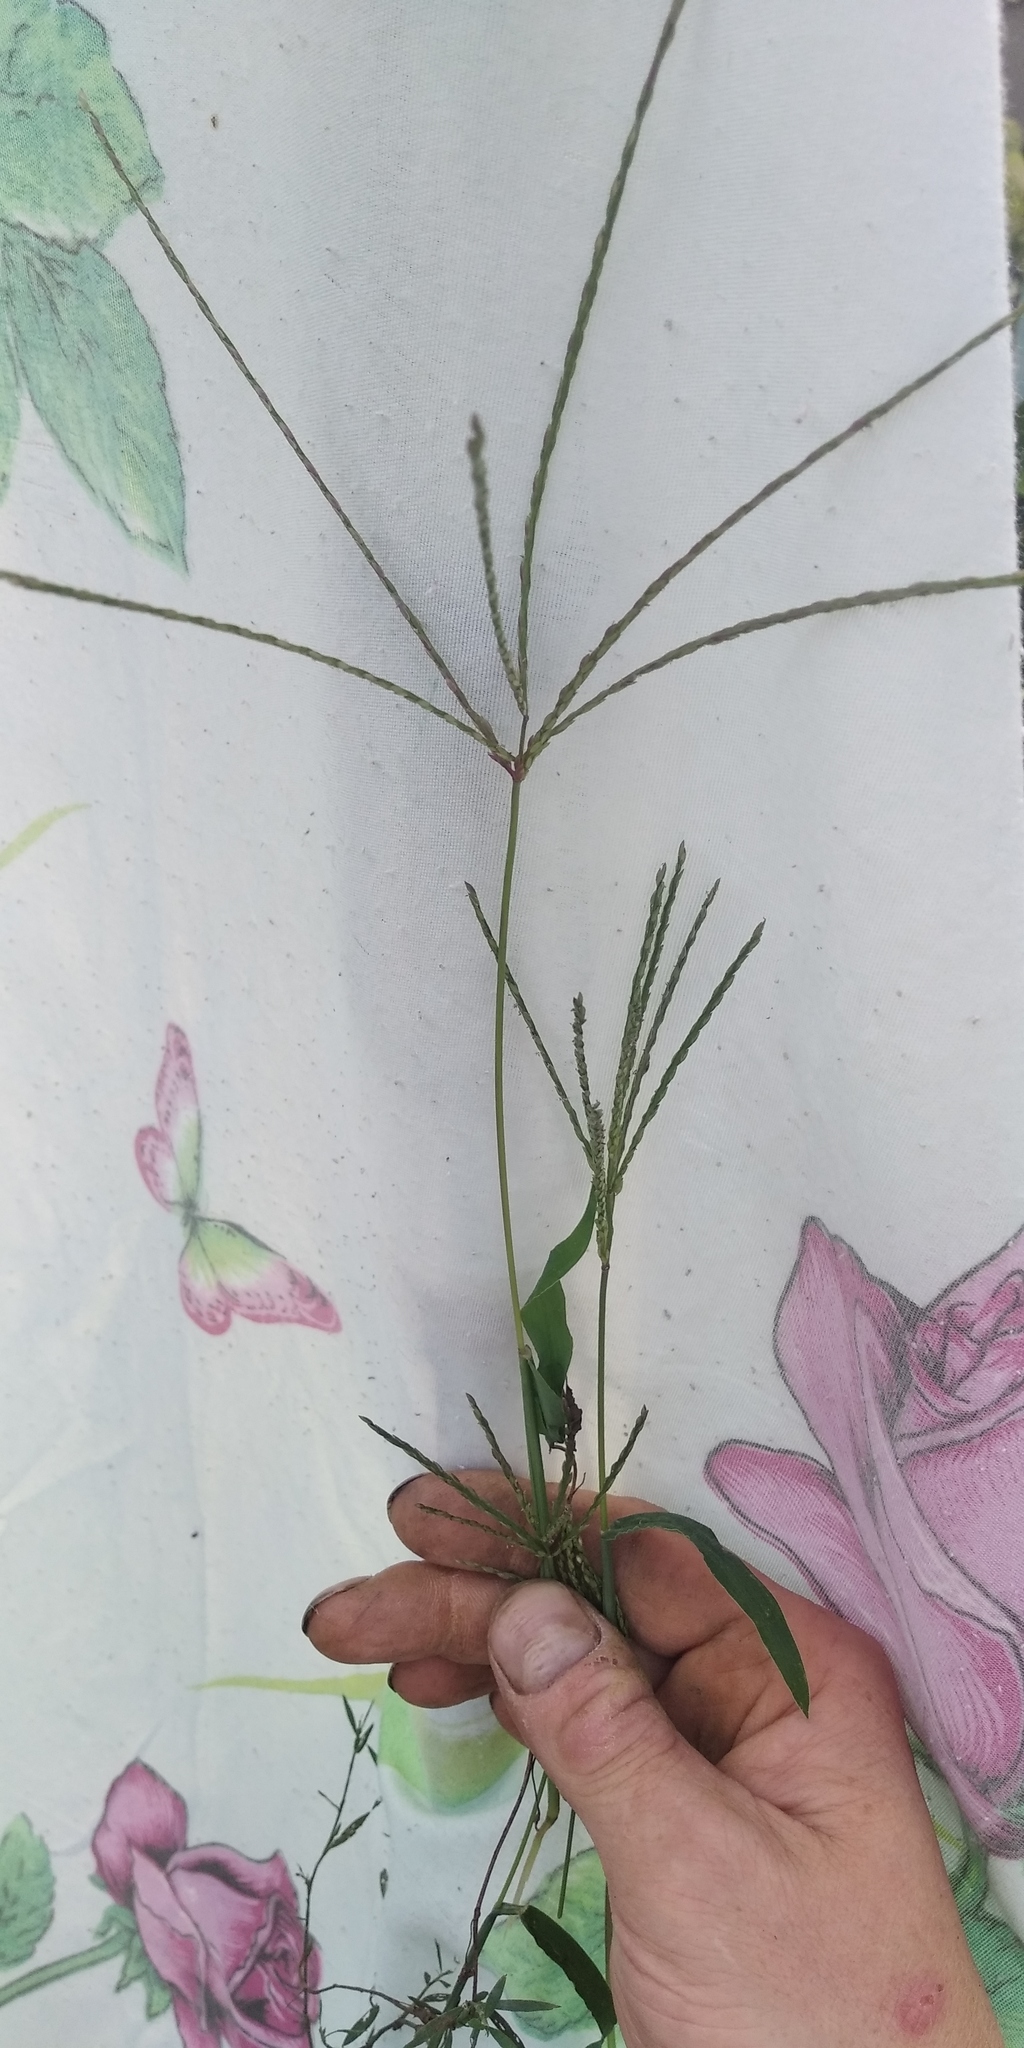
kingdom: Plantae
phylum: Tracheophyta
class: Liliopsida
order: Poales
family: Poaceae
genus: Digitaria
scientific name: Digitaria sanguinalis
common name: Hairy crabgrass
